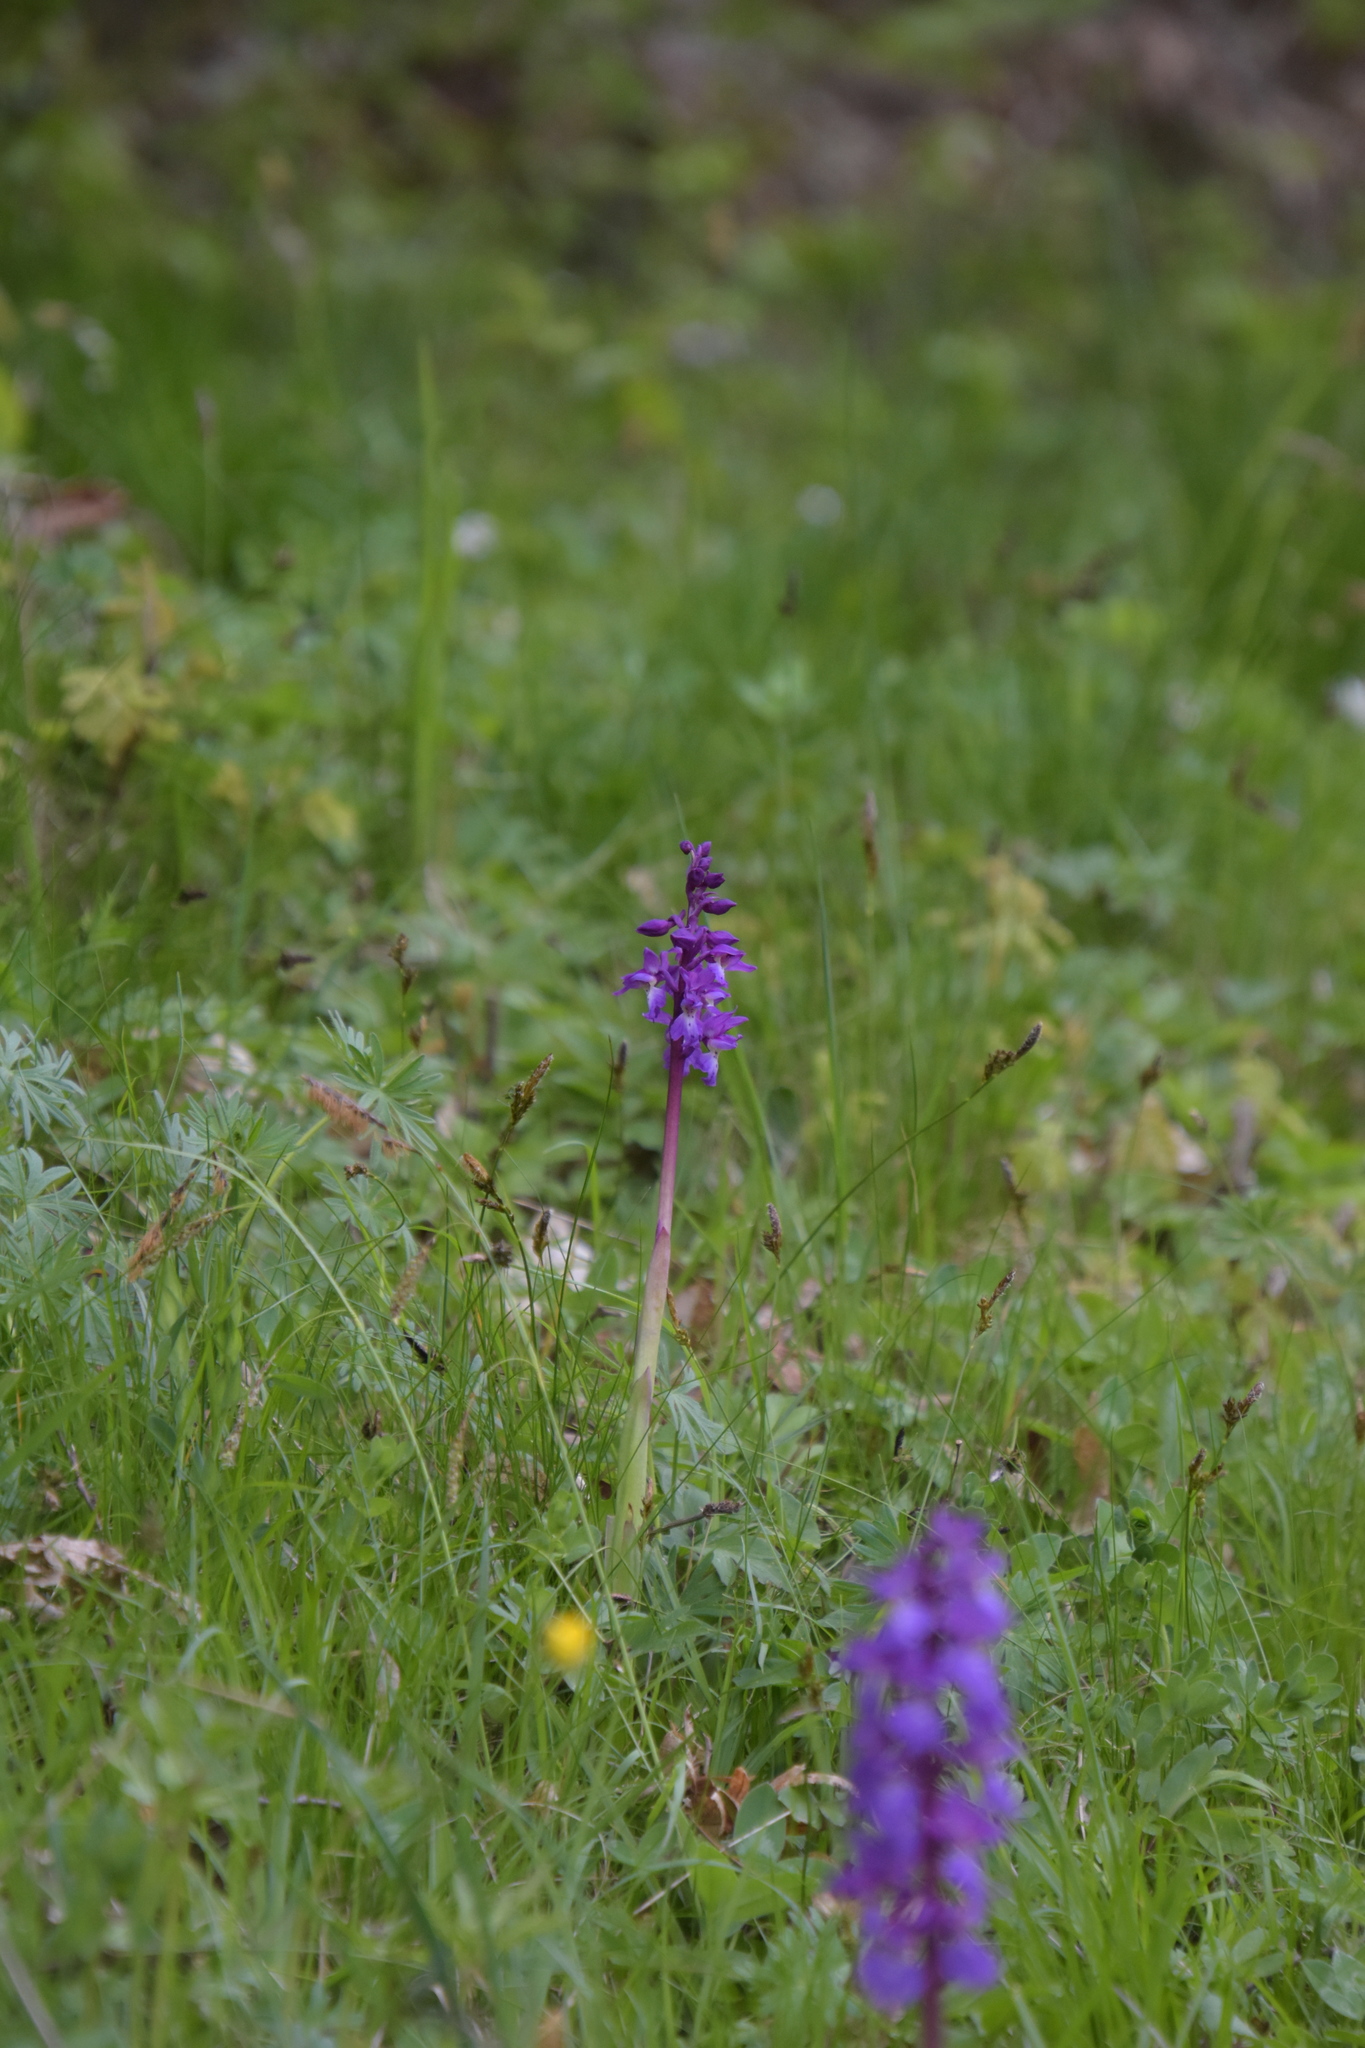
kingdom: Plantae
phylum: Tracheophyta
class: Liliopsida
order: Asparagales
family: Orchidaceae
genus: Orchis
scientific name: Orchis mascula
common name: Early-purple orchid
